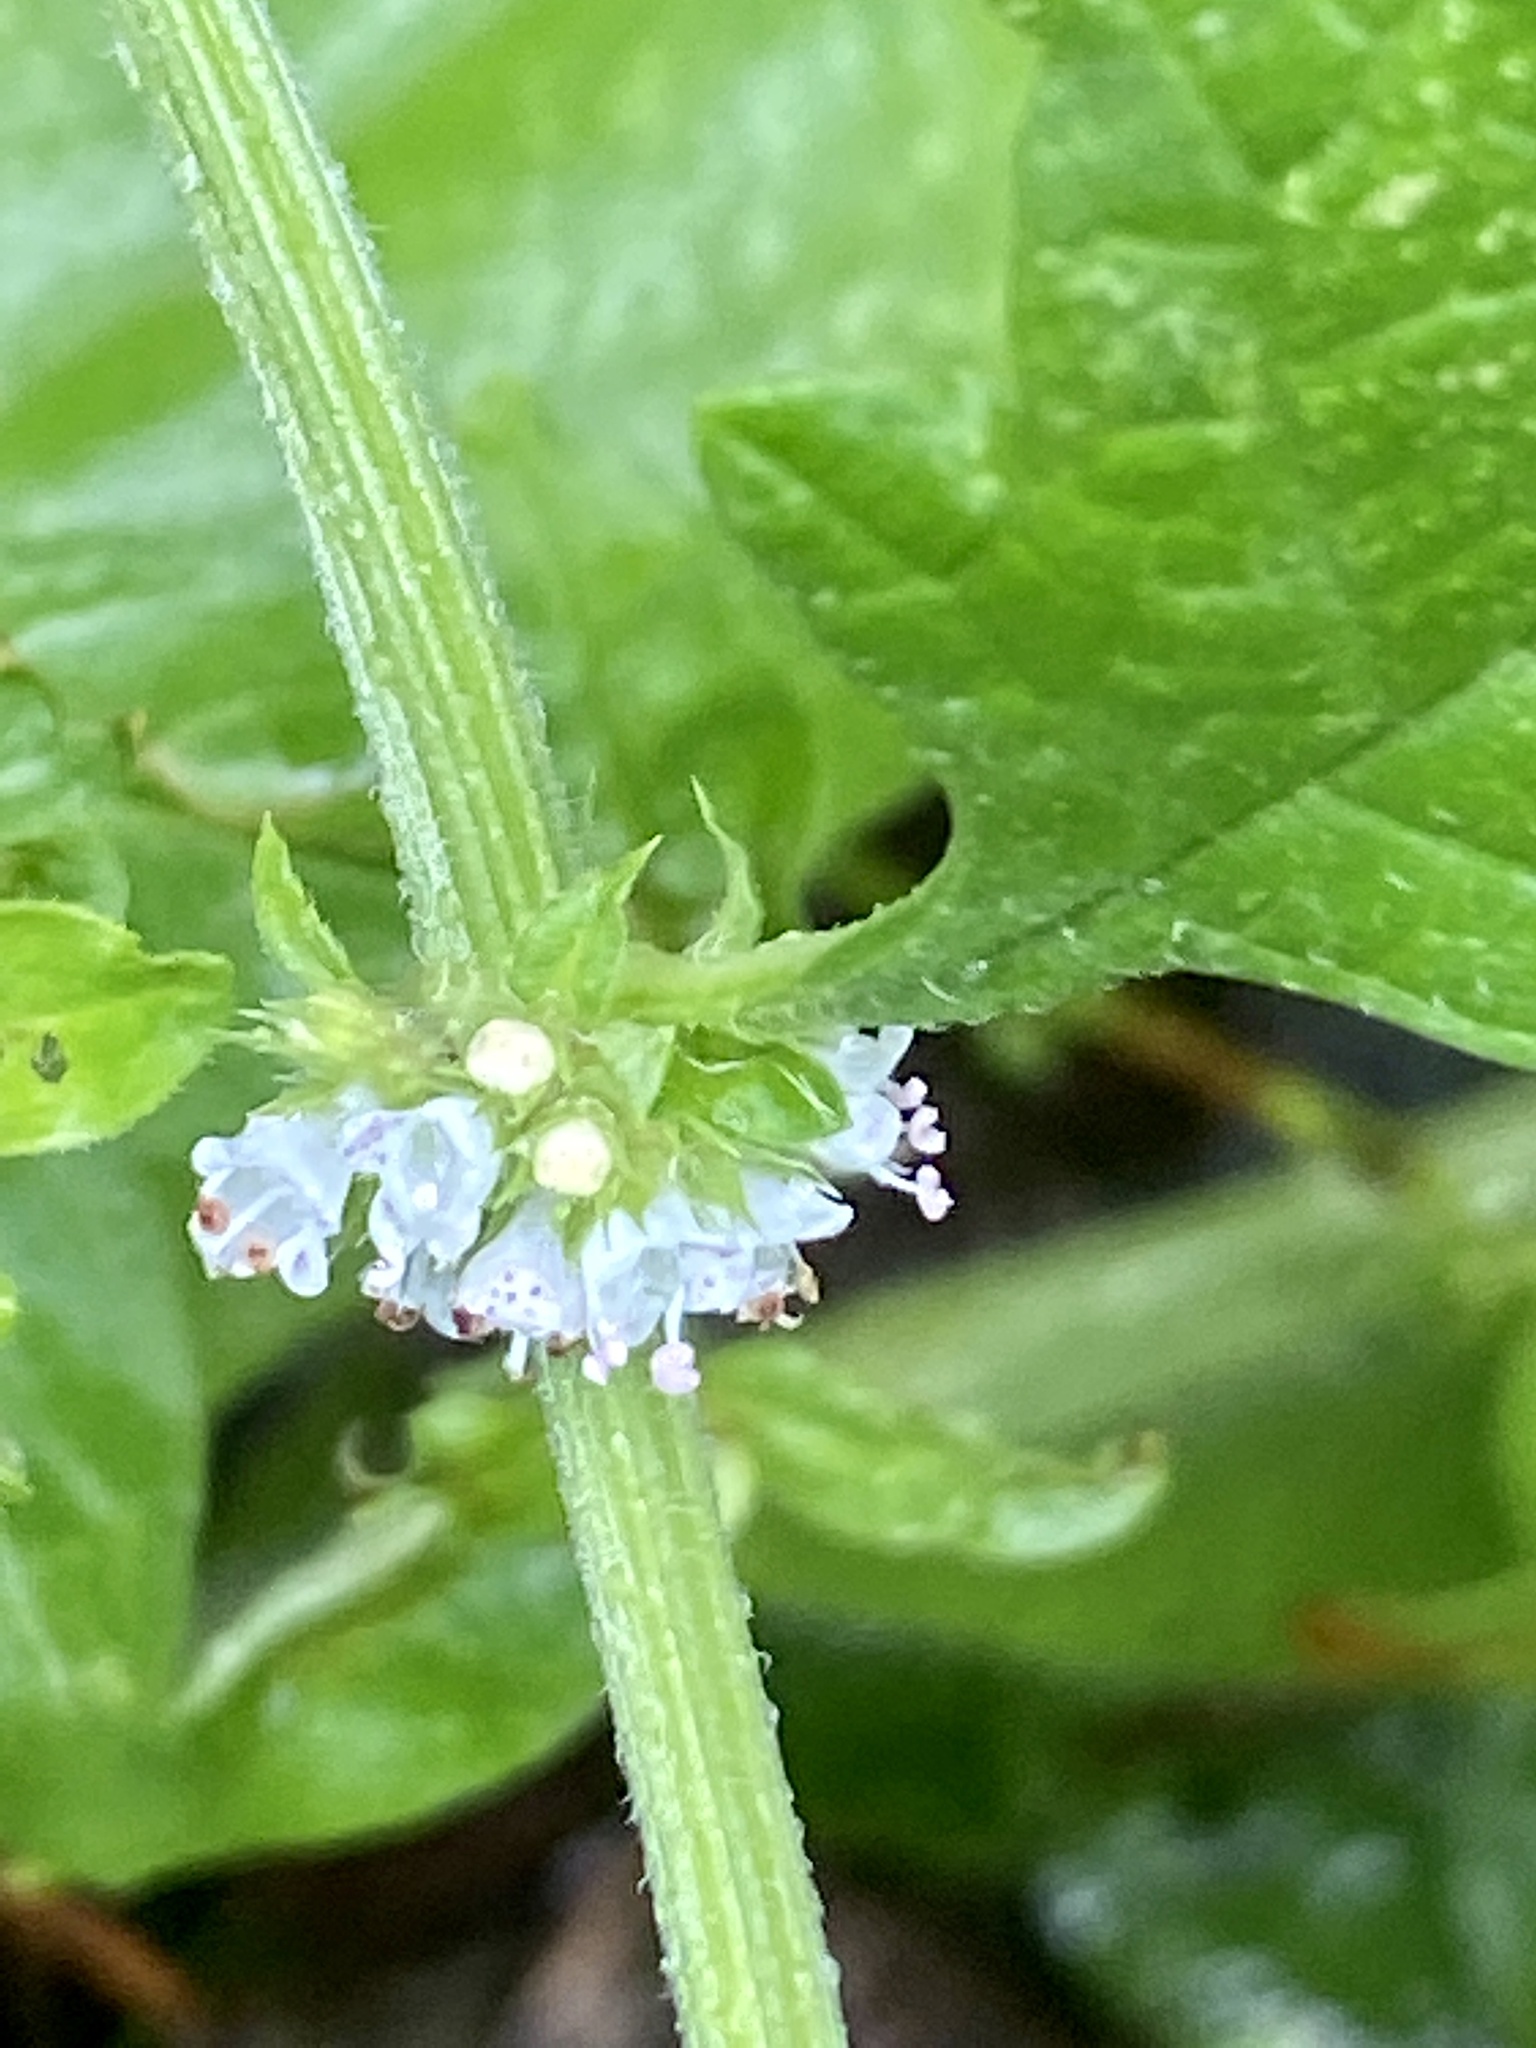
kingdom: Plantae
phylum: Tracheophyta
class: Magnoliopsida
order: Lamiales
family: Lamiaceae
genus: Lycopus
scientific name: Lycopus europaeus
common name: European bugleweed
